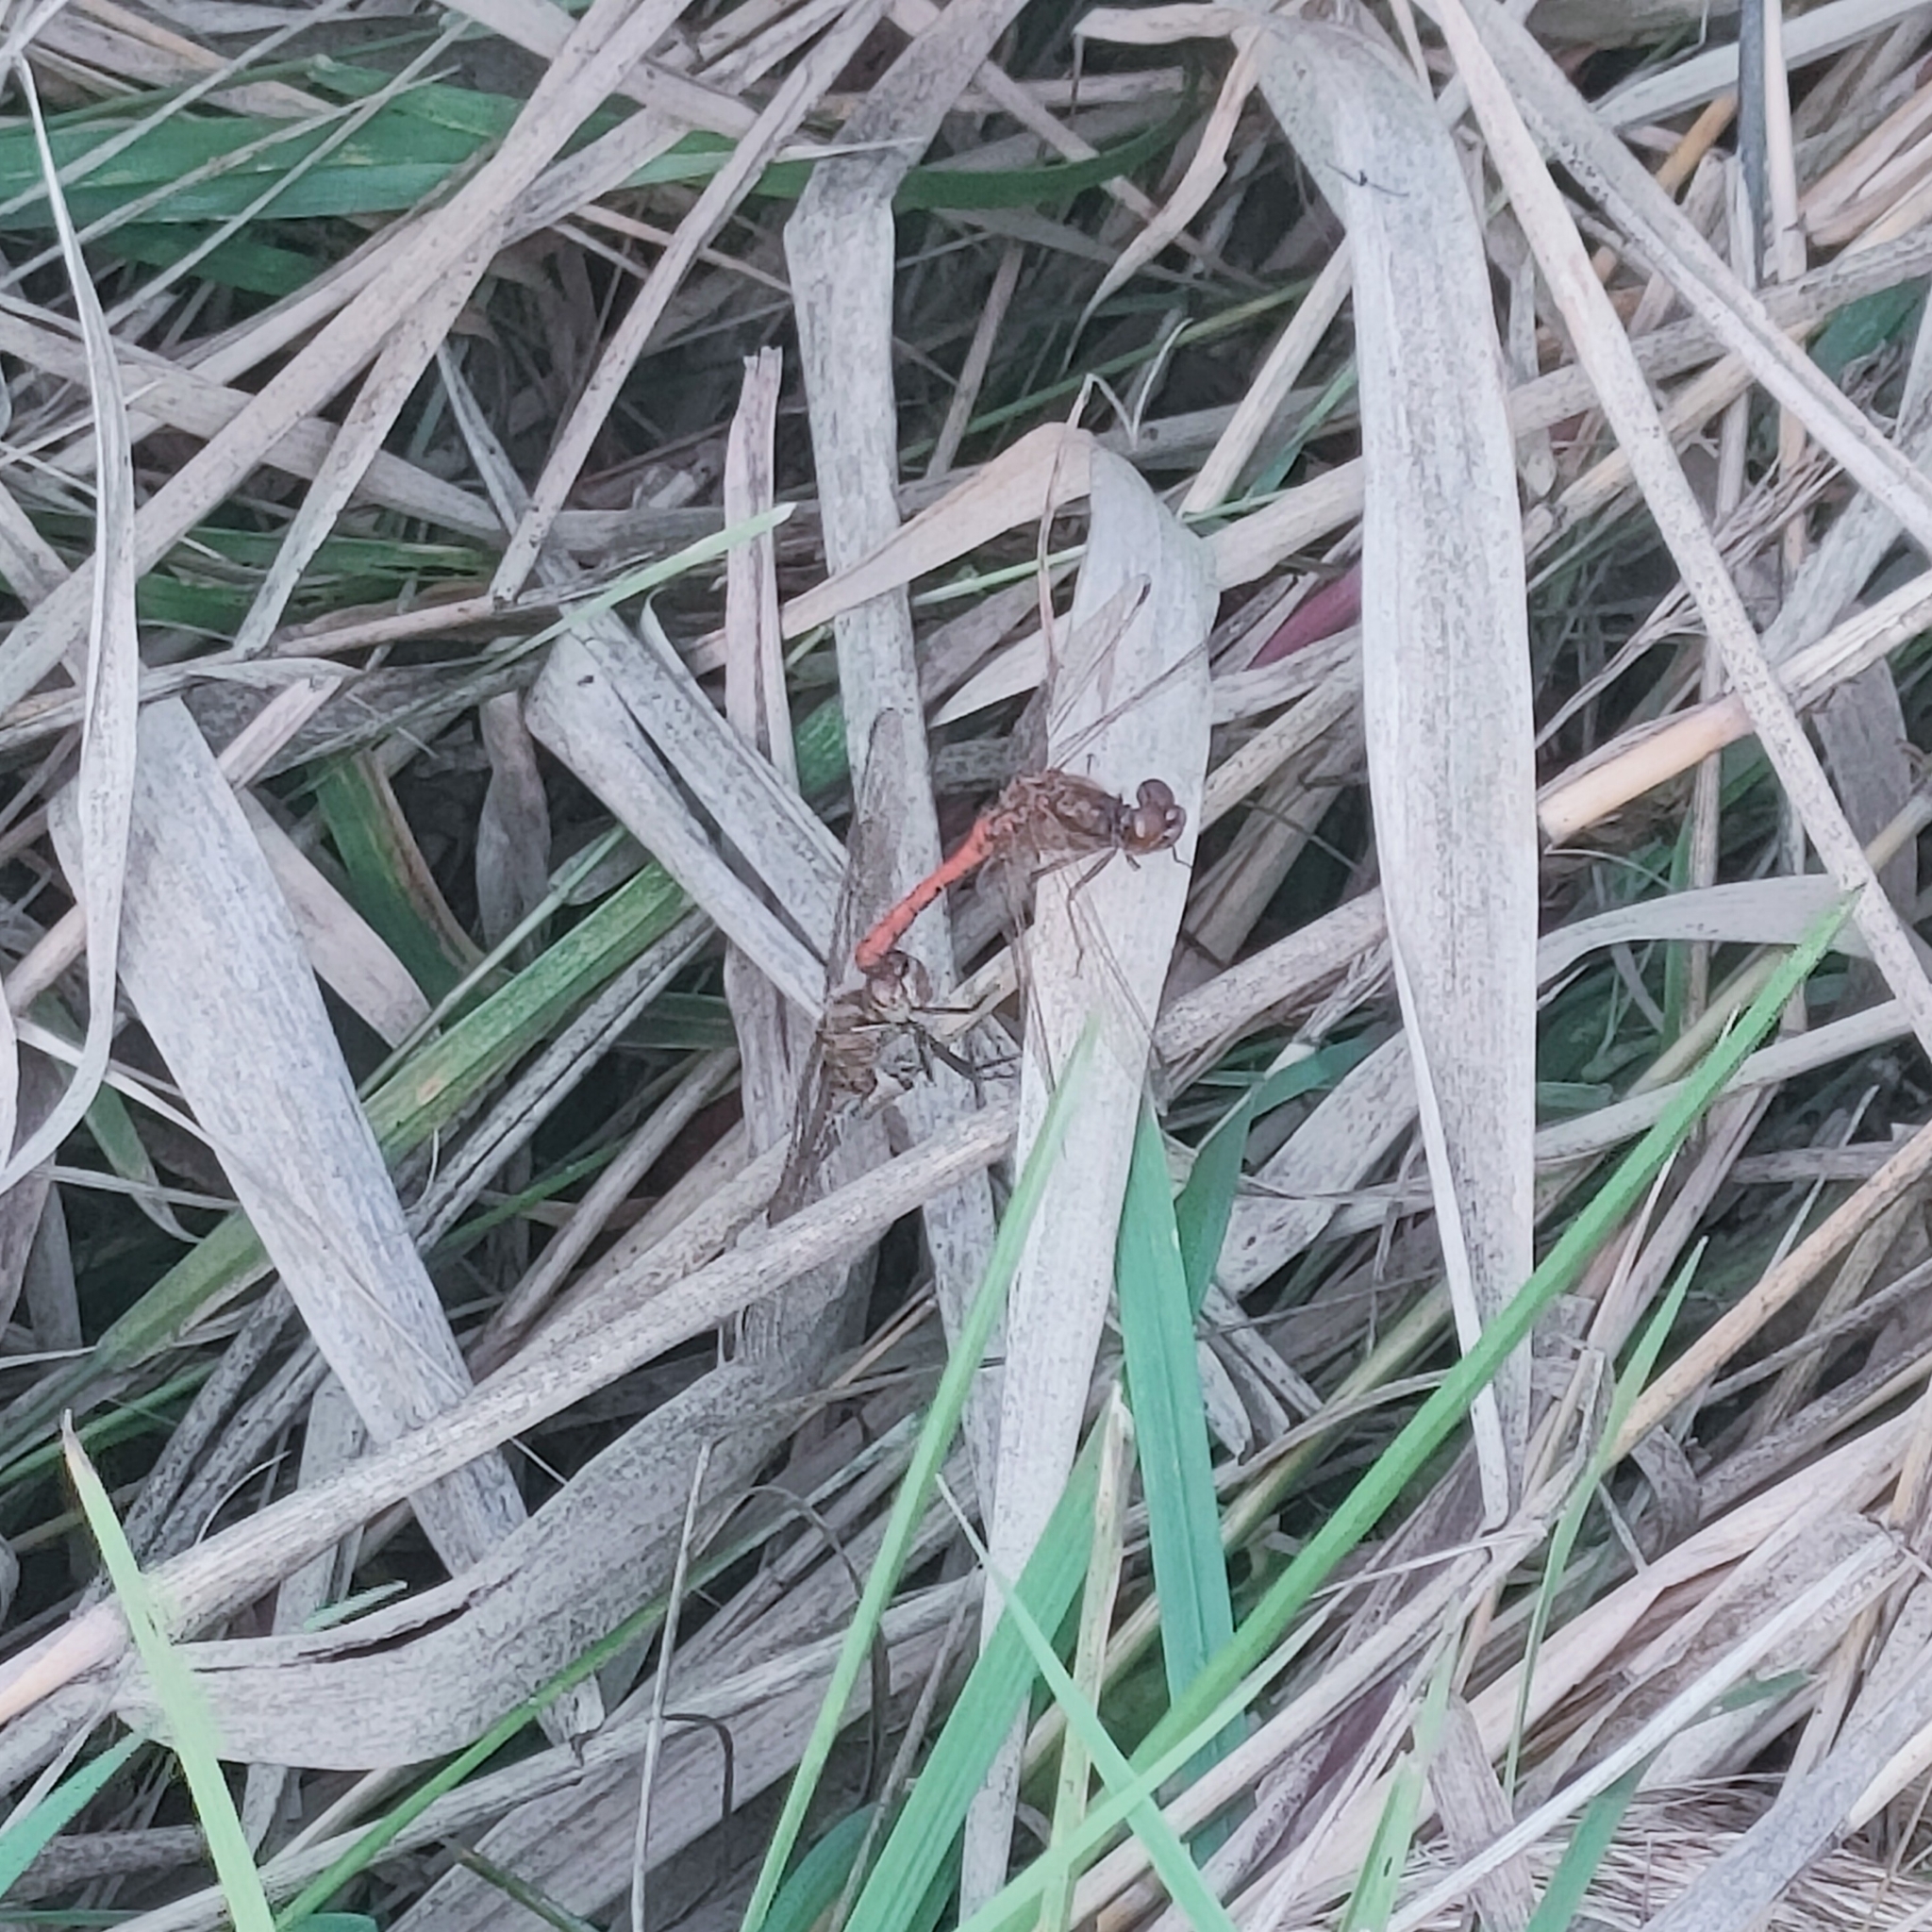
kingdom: Animalia
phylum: Arthropoda
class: Insecta
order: Odonata
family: Libellulidae
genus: Sympetrum
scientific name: Sympetrum vulgatum
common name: Vagrant darter
